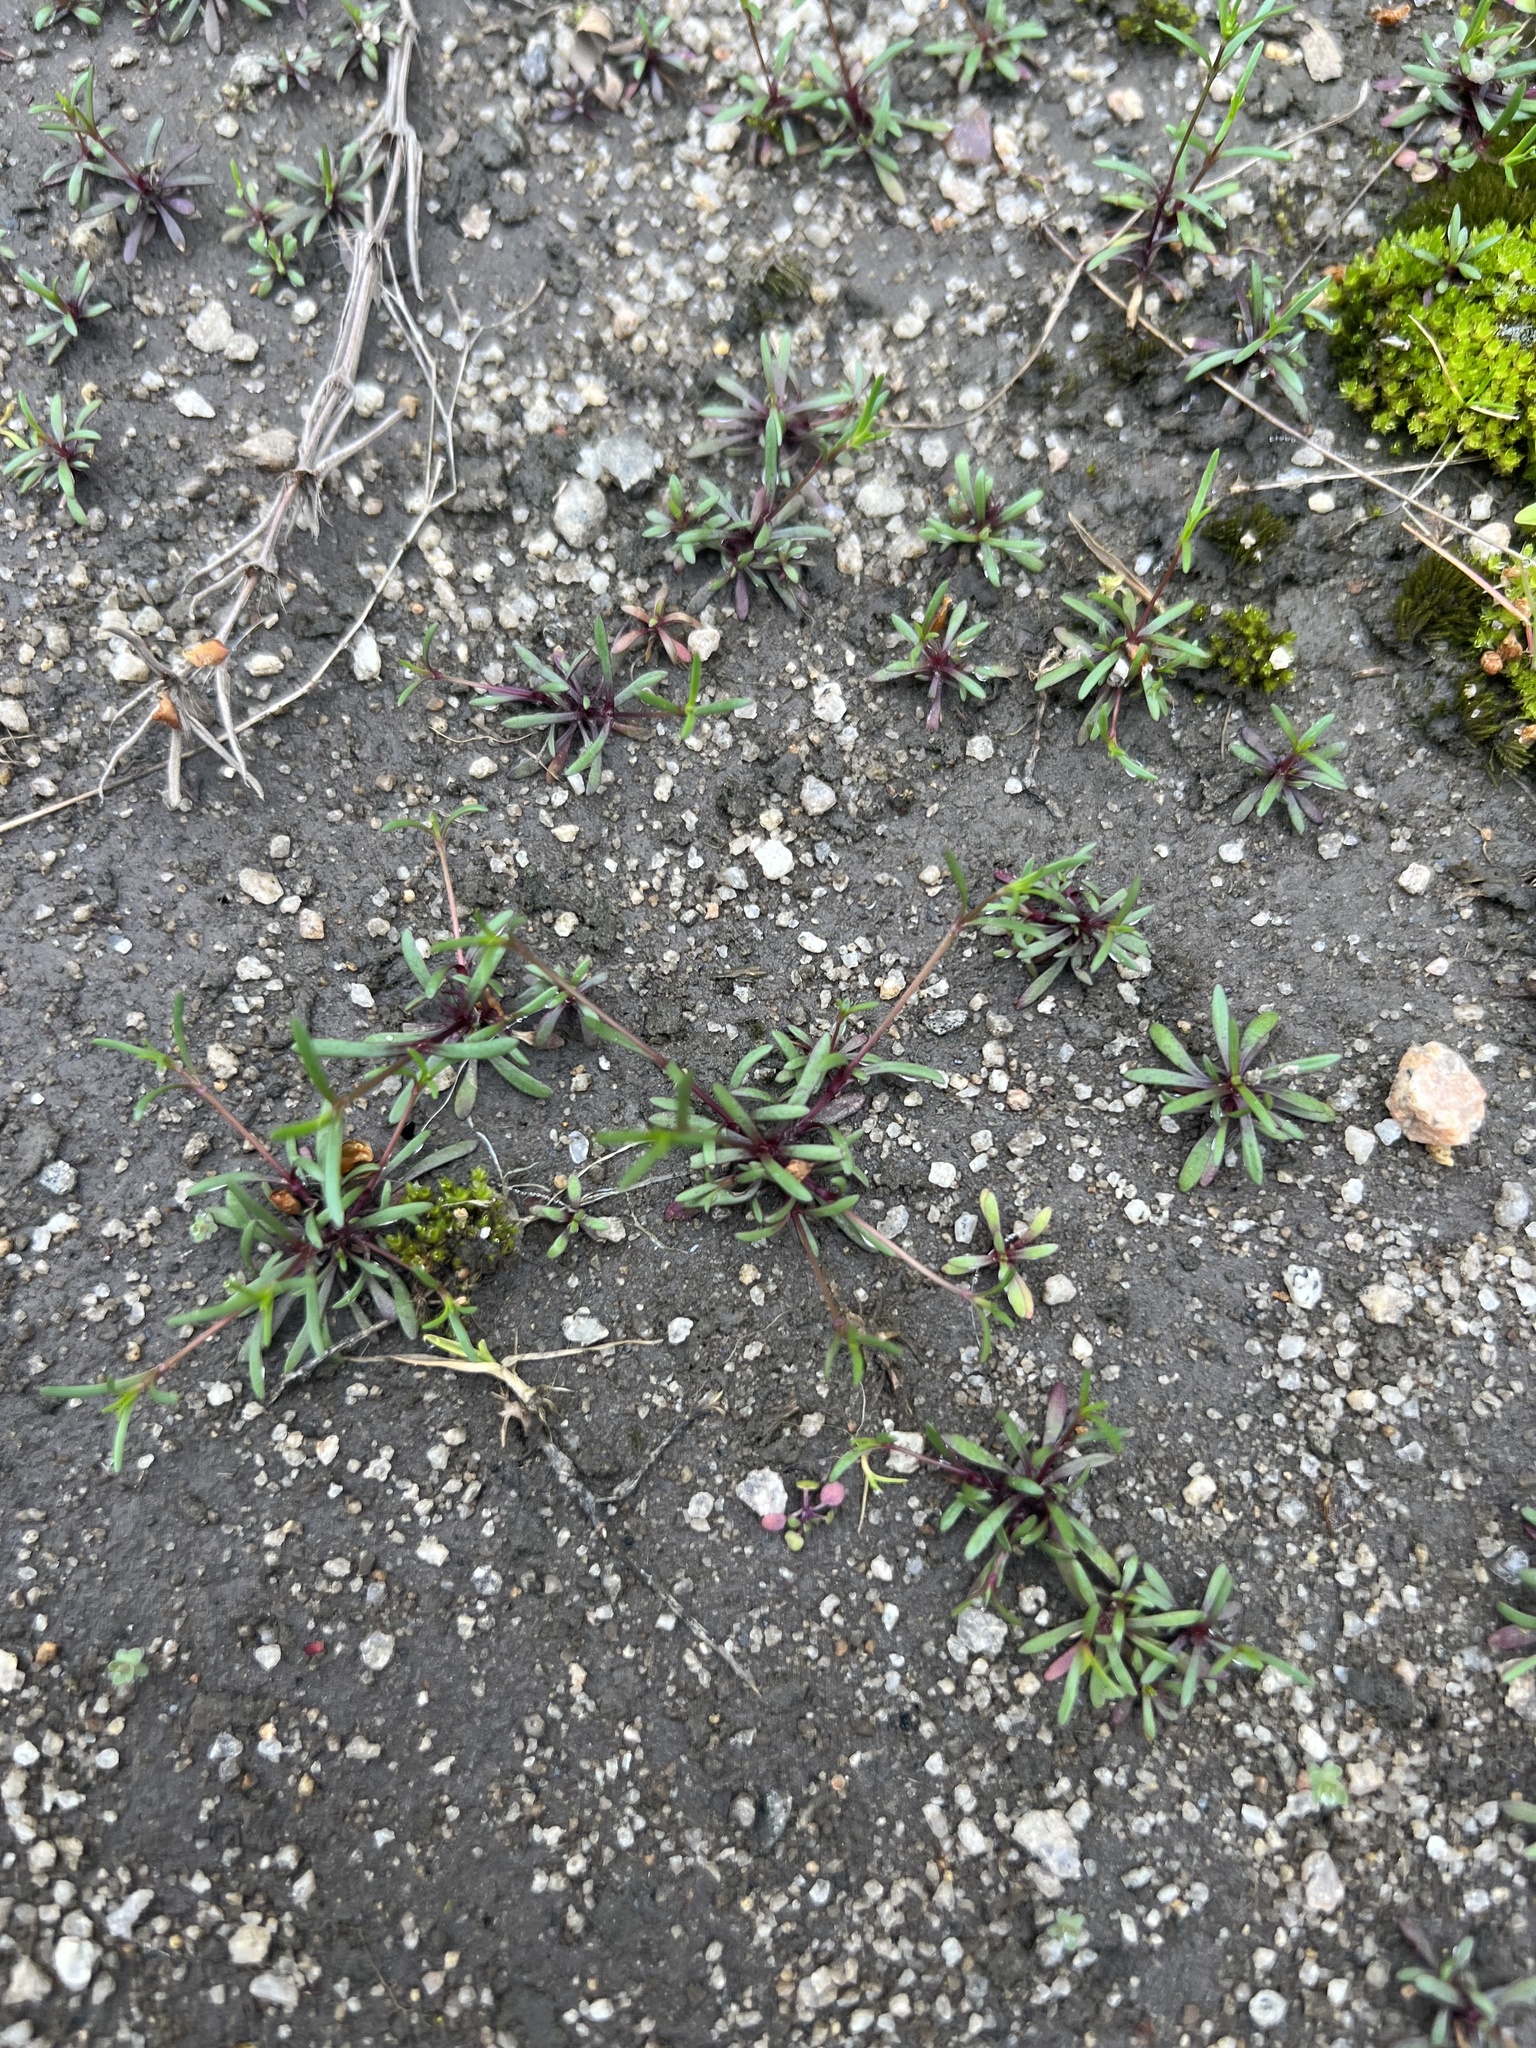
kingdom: Plantae
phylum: Tracheophyta
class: Magnoliopsida
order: Caryophyllales
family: Caryophyllaceae
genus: Geocarpon
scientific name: Geocarpon glabrum
